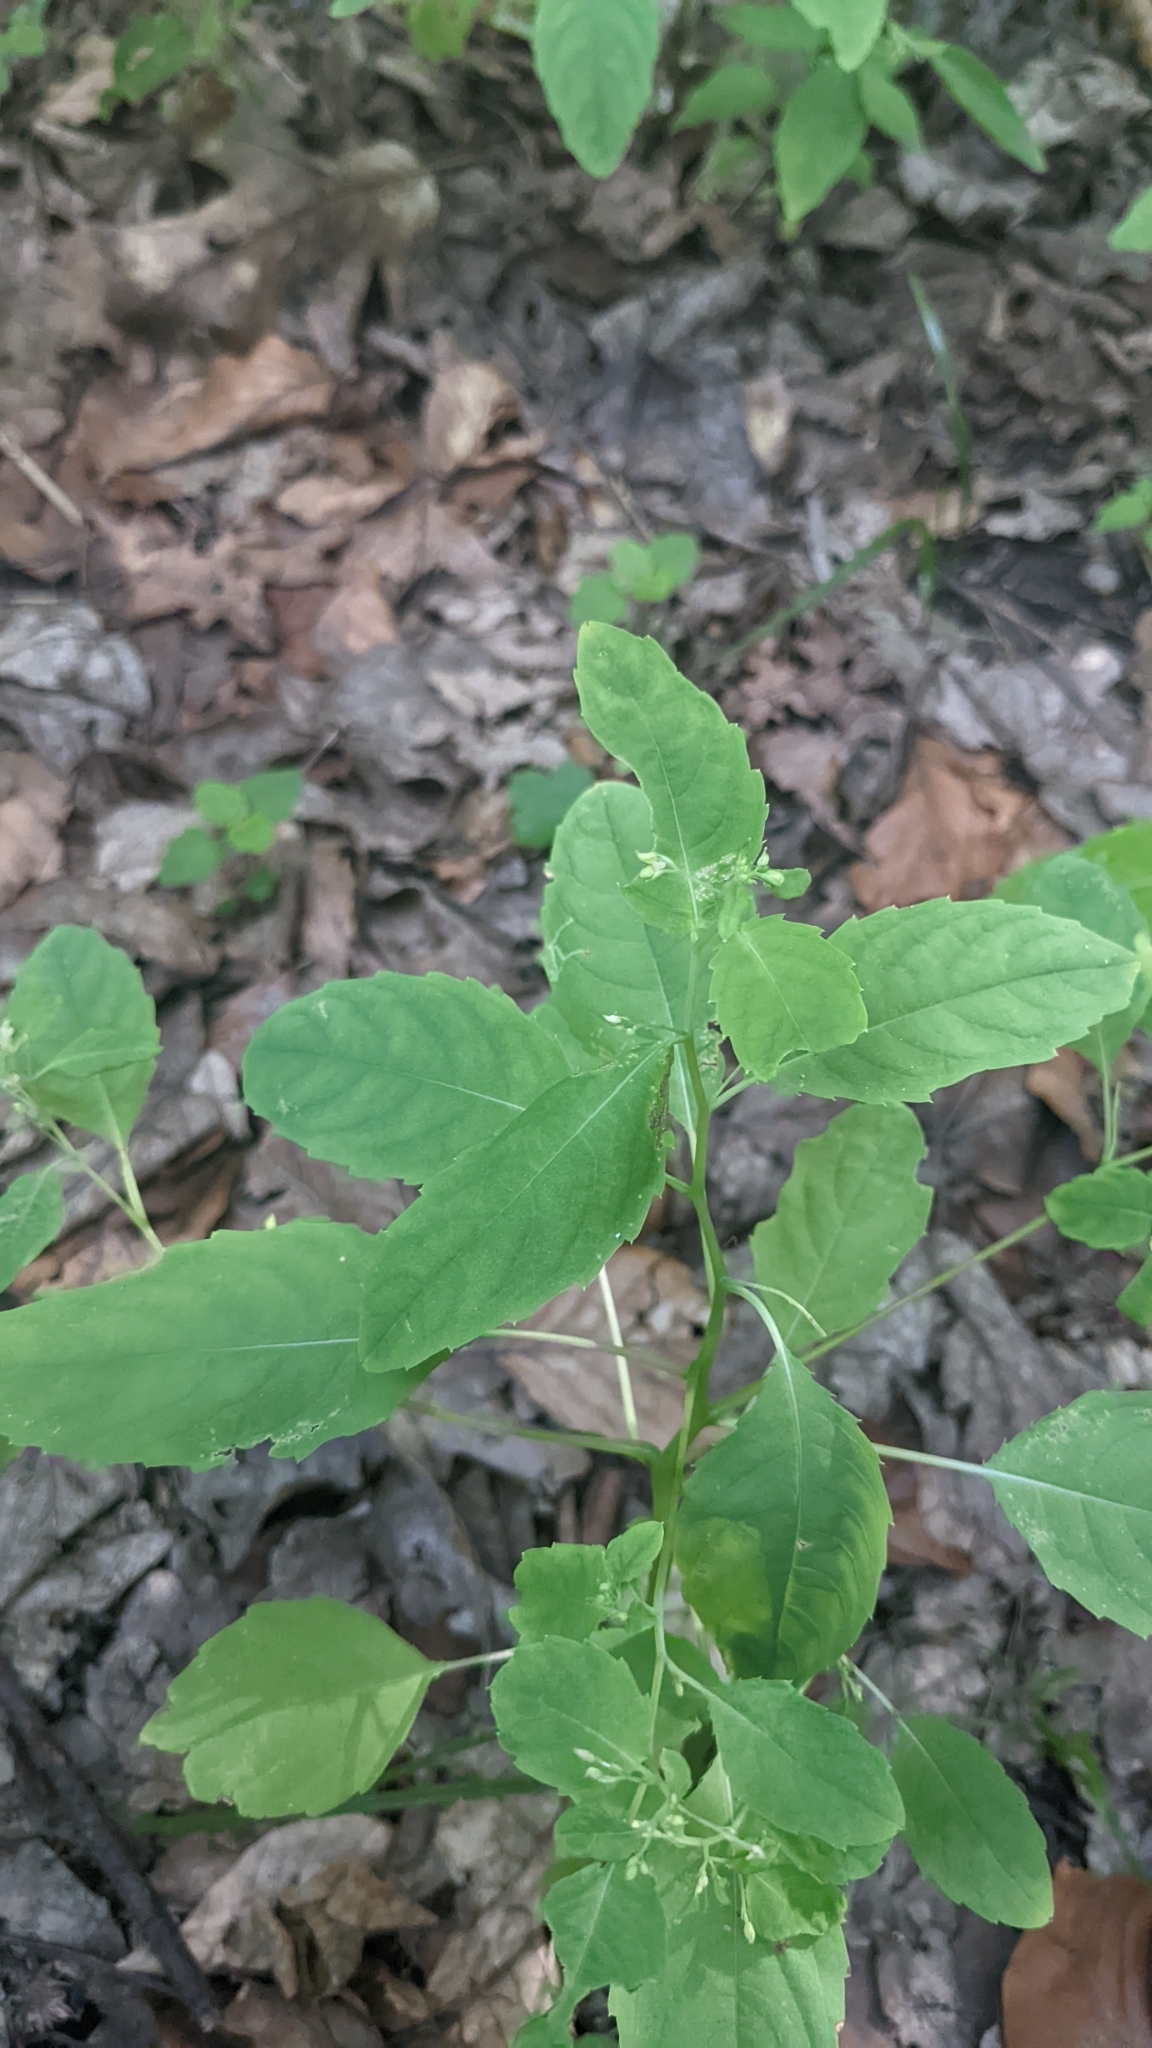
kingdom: Plantae
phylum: Tracheophyta
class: Magnoliopsida
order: Ericales
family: Balsaminaceae
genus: Impatiens
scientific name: Impatiens noli-tangere
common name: Touch-me-not balsam
